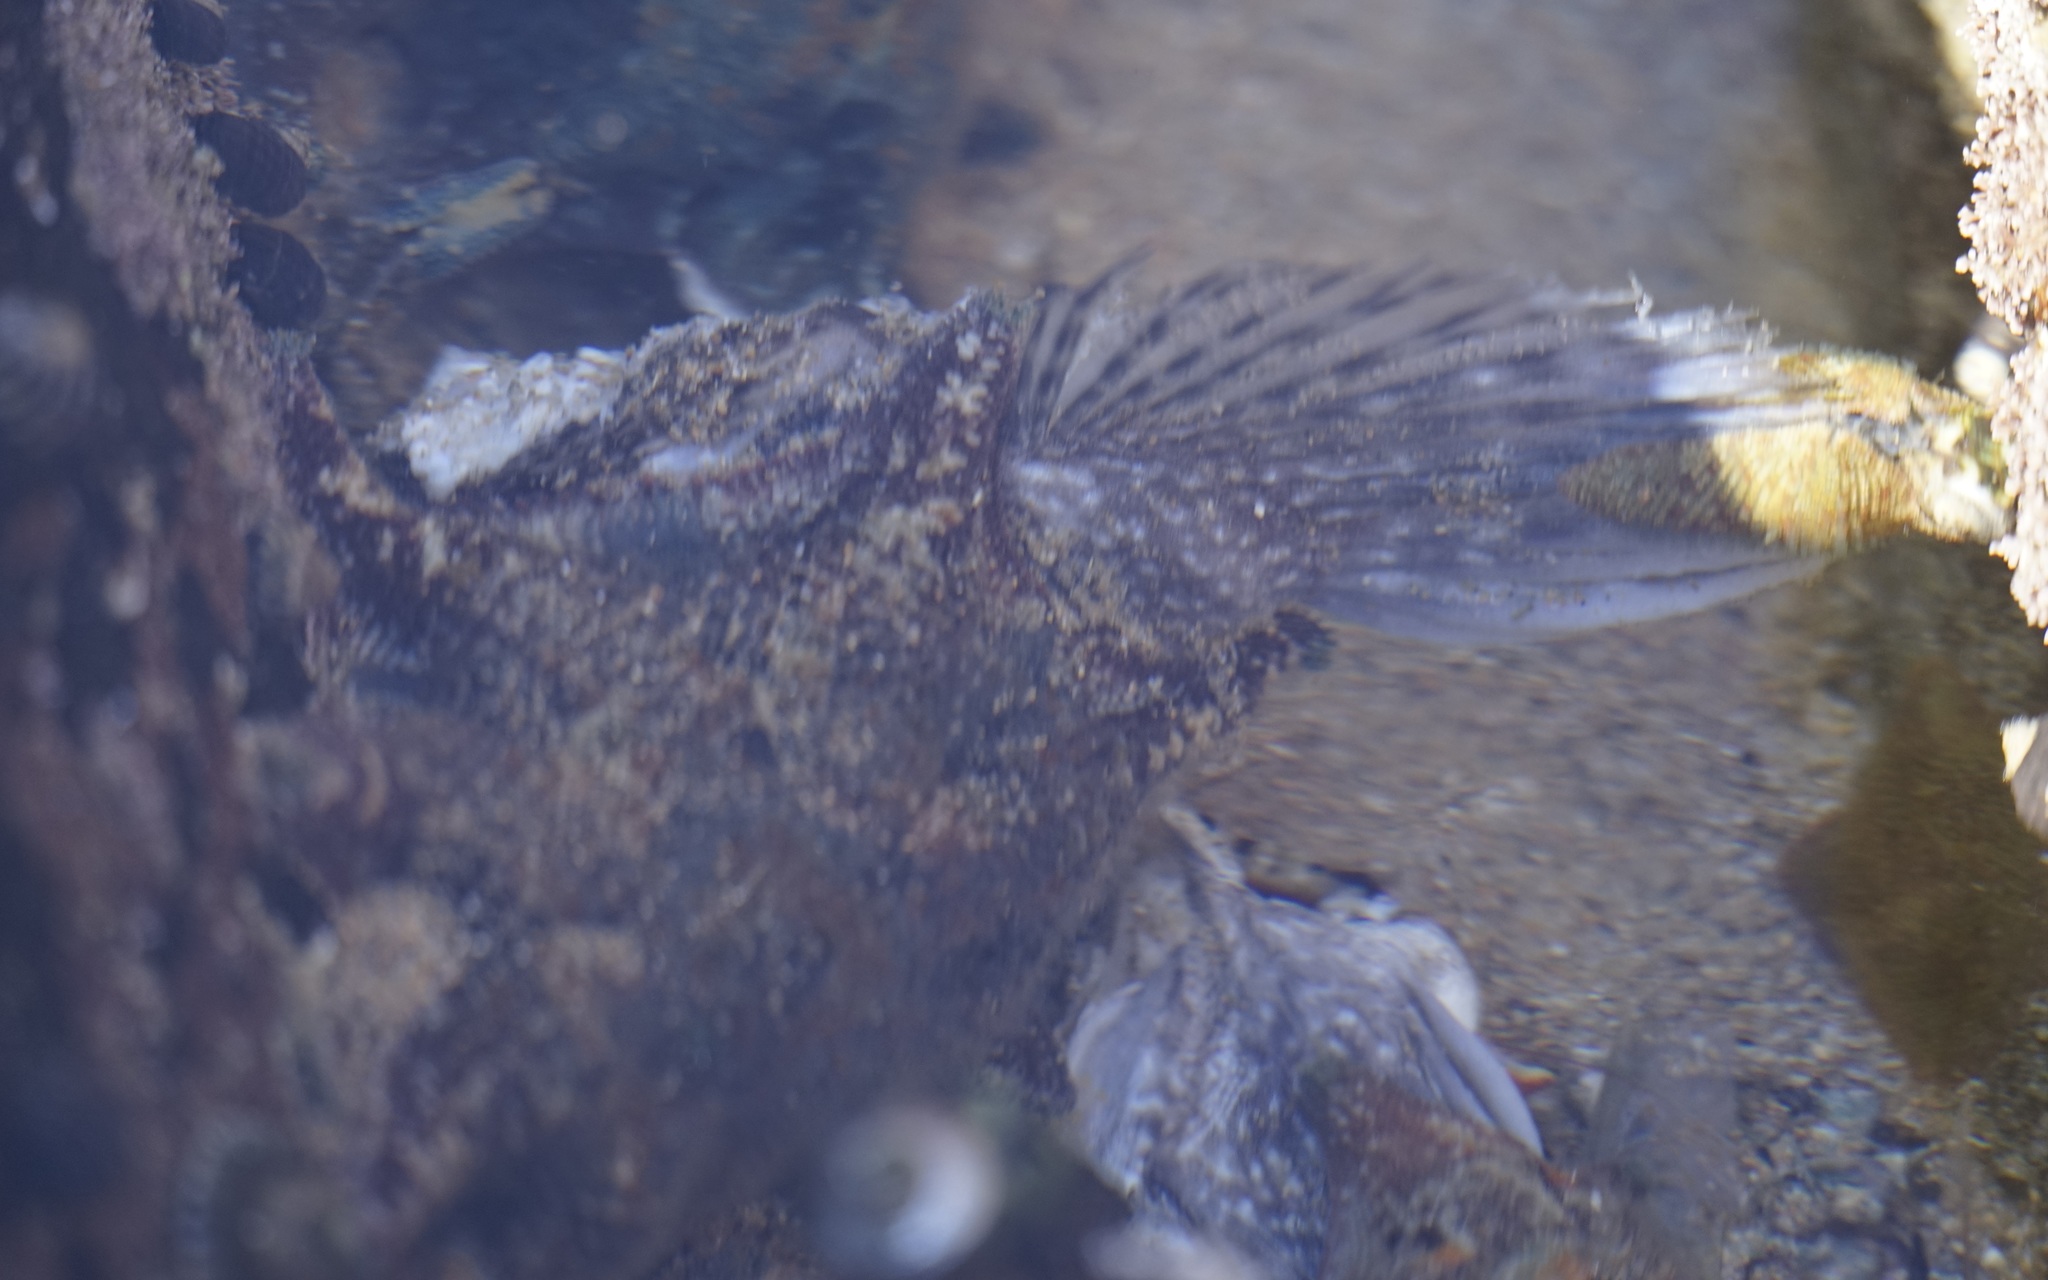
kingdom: Animalia
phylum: Echinodermata
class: Asteroidea
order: Valvatida
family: Asterinidae
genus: Meridiastra
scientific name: Meridiastra calcar
